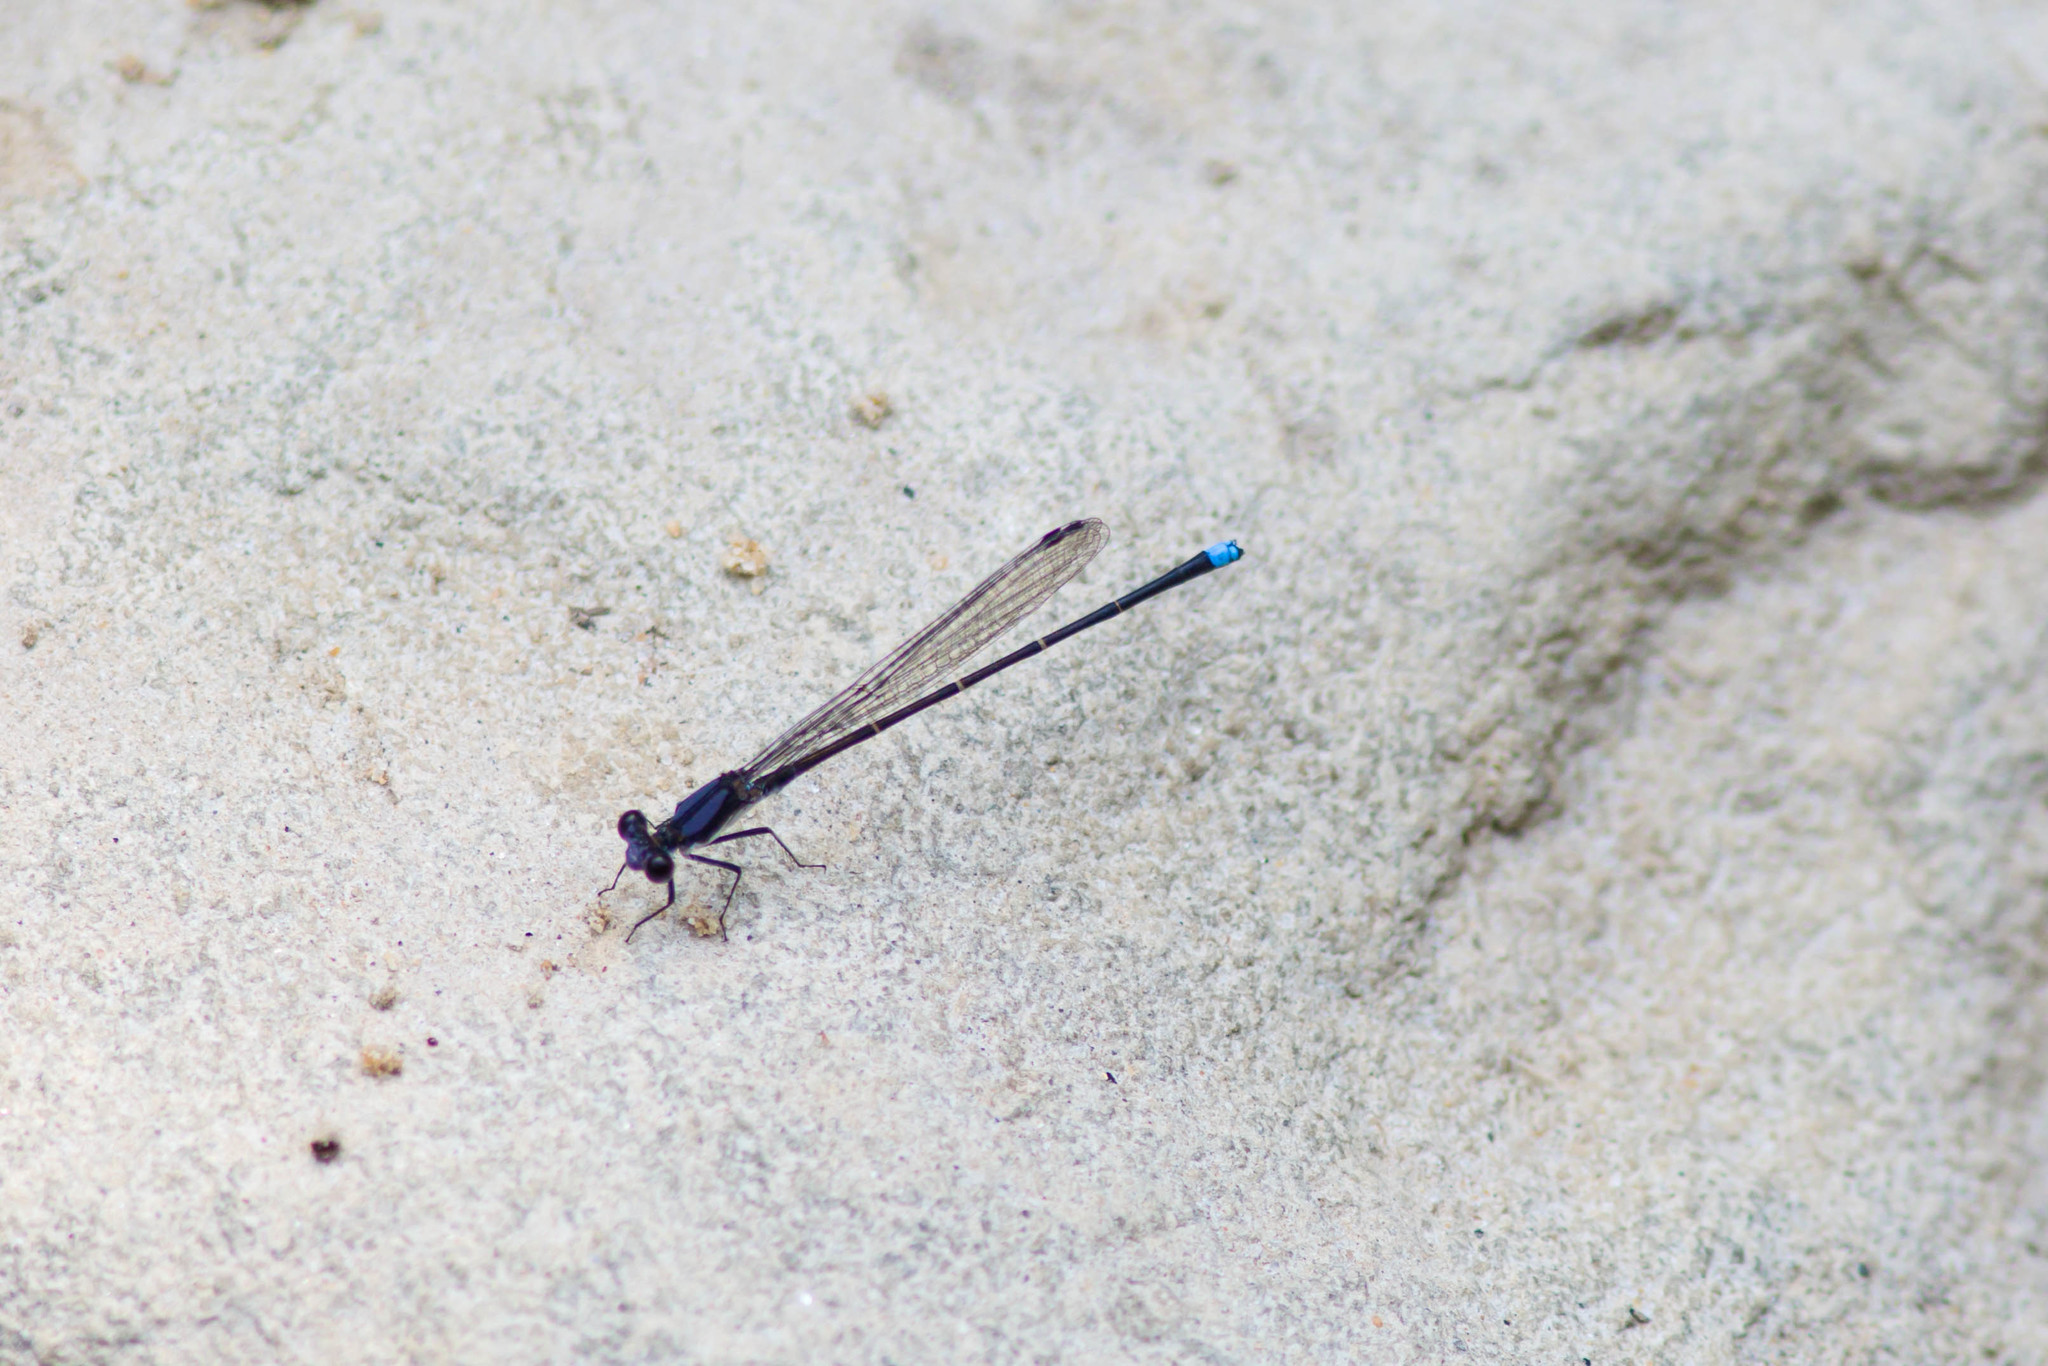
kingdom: Animalia
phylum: Arthropoda
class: Insecta
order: Odonata
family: Coenagrionidae
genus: Argia
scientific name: Argia tibialis
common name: Blue-tipped dancer
